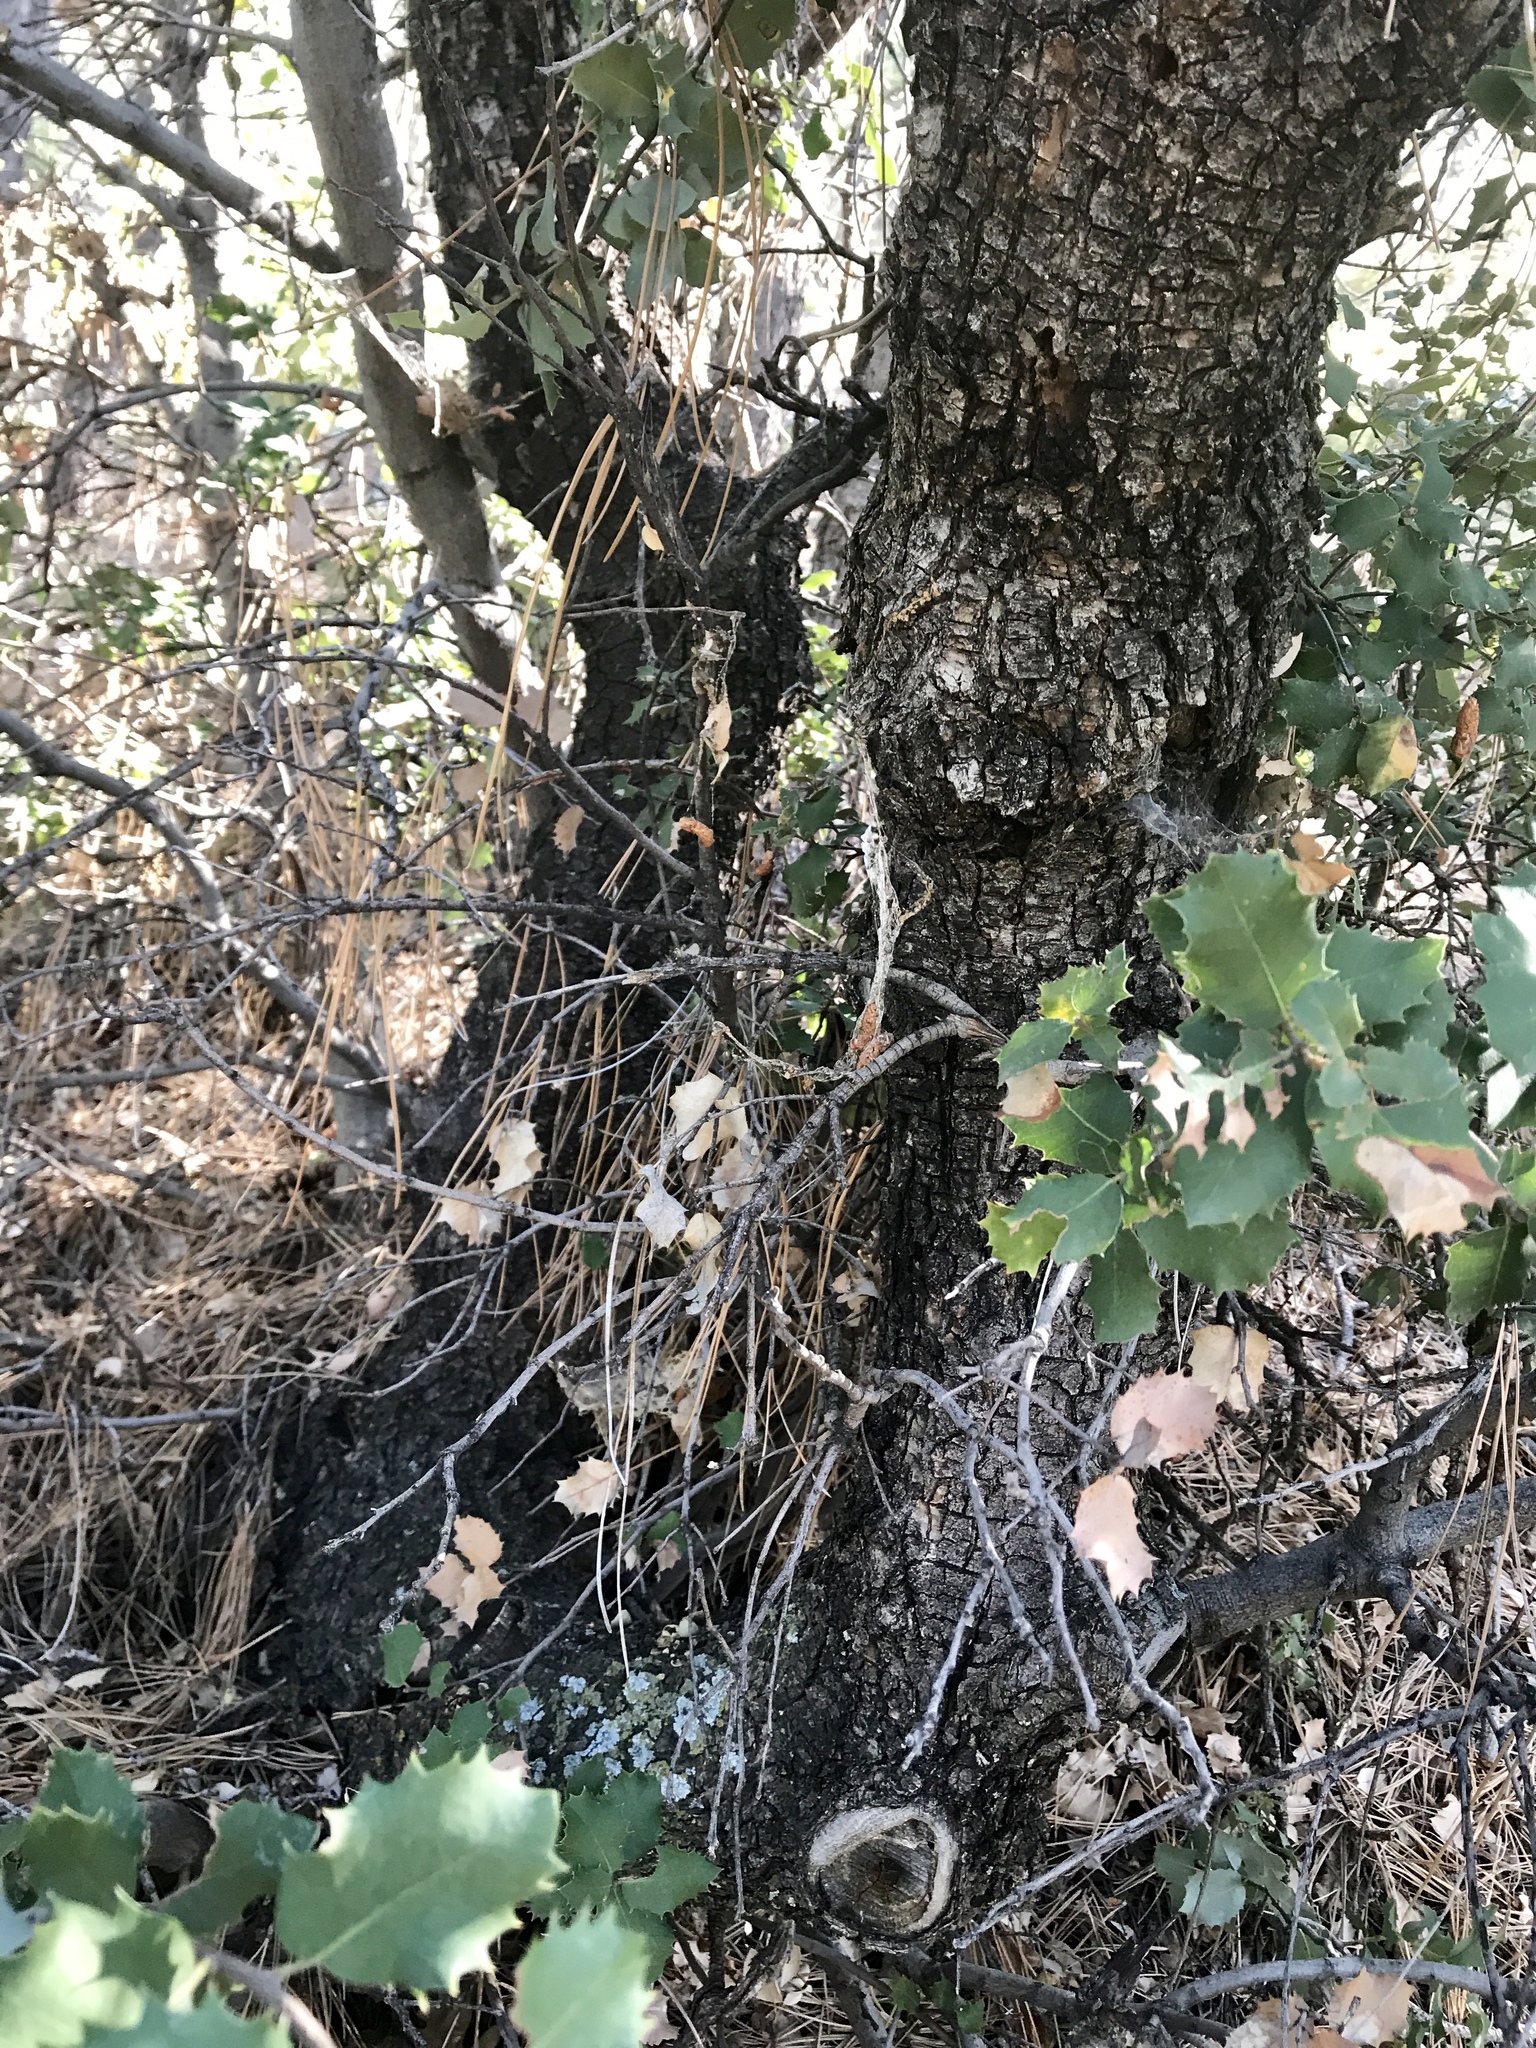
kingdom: Plantae
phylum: Tracheophyta
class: Magnoliopsida
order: Fagales
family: Fagaceae
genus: Quercus
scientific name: Quercus turbinella
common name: Sonoran scrub oak
